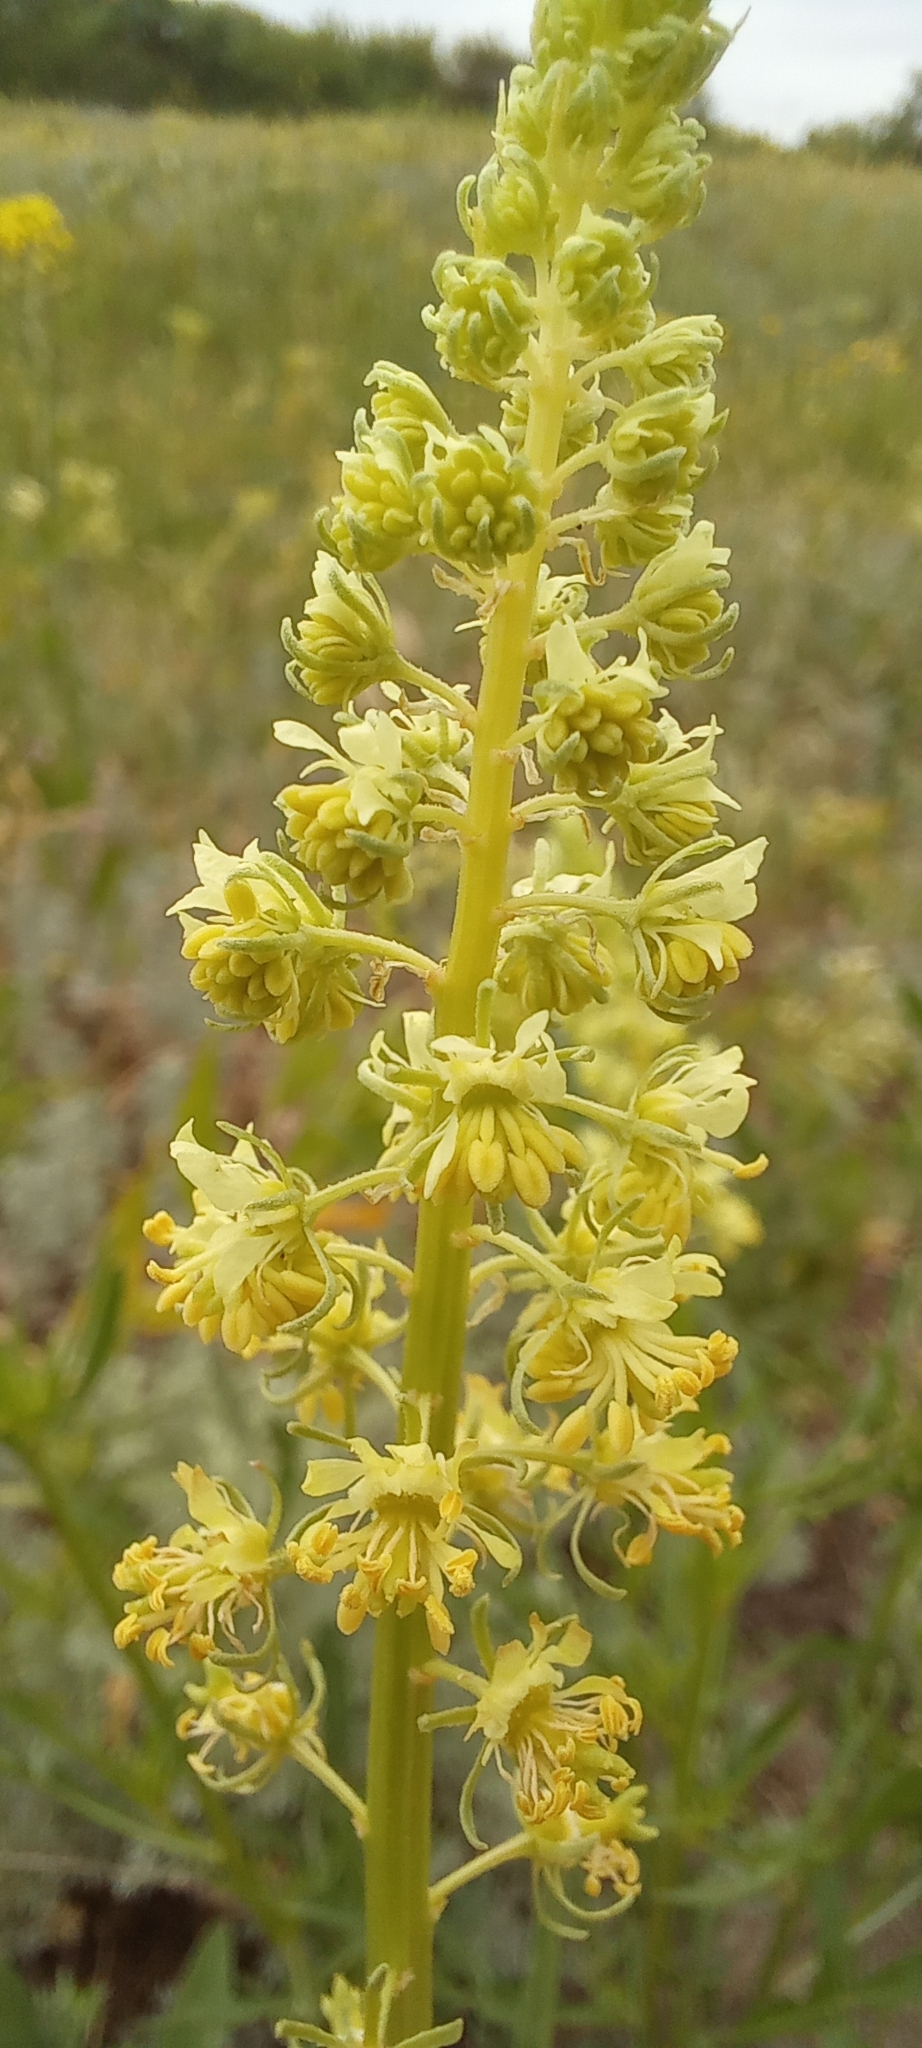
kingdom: Plantae
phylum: Tracheophyta
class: Magnoliopsida
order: Brassicales
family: Resedaceae
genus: Reseda
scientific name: Reseda lutea
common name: Wild mignonette
